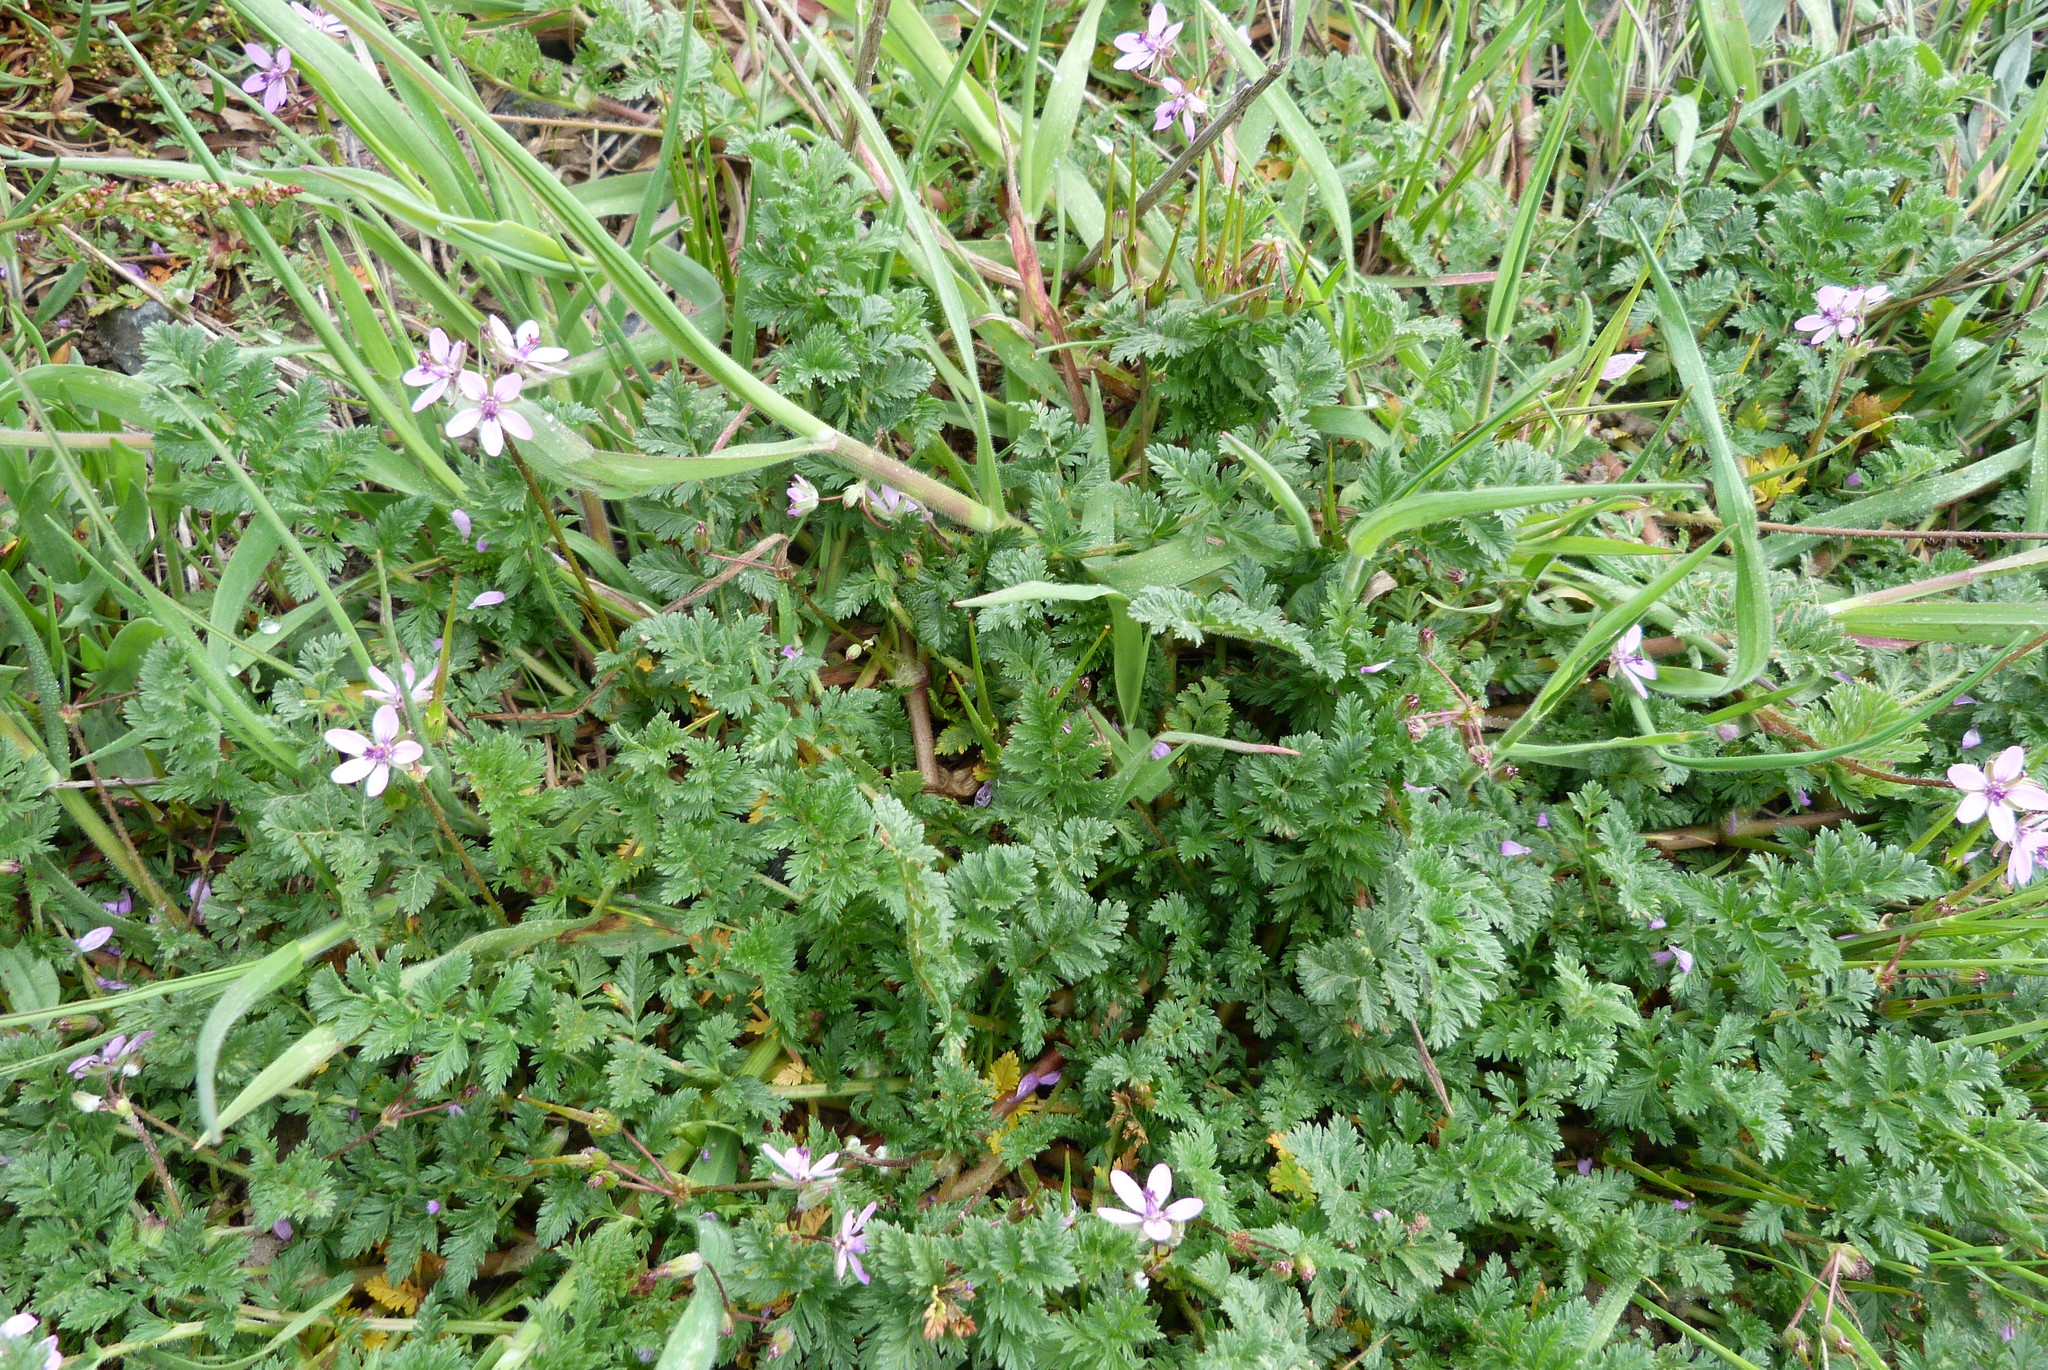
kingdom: Plantae
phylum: Tracheophyta
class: Magnoliopsida
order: Geraniales
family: Geraniaceae
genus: Erodium
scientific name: Erodium cicutarium
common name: Common stork's-bill
